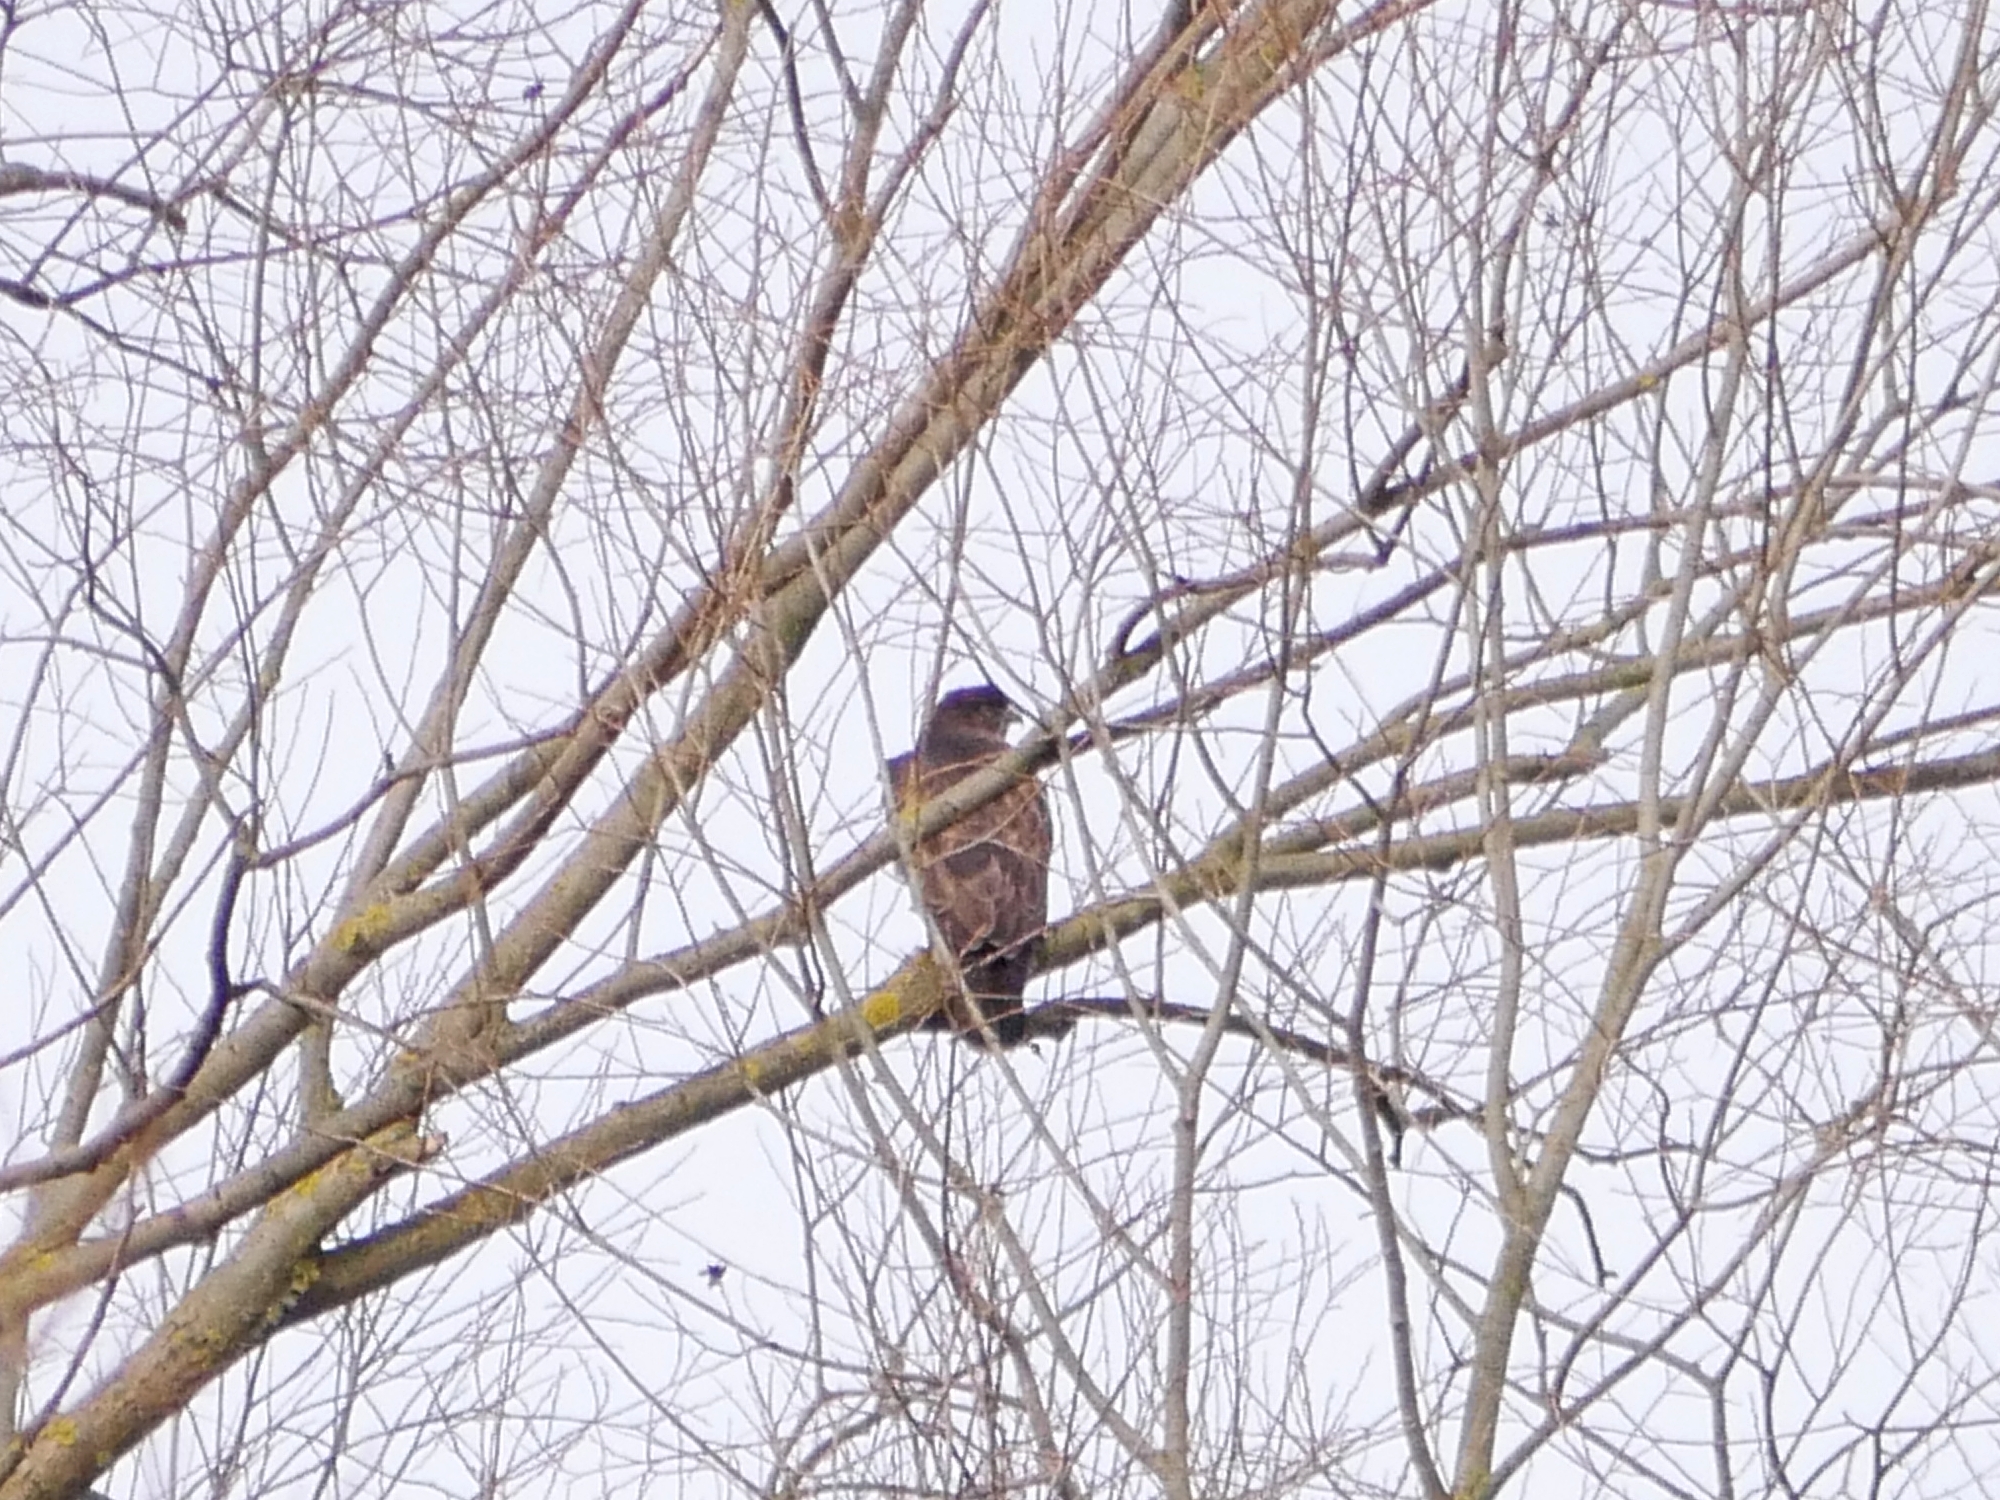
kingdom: Animalia
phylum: Chordata
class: Aves
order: Accipitriformes
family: Accipitridae
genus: Buteo
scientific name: Buteo buteo
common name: Common buzzard
